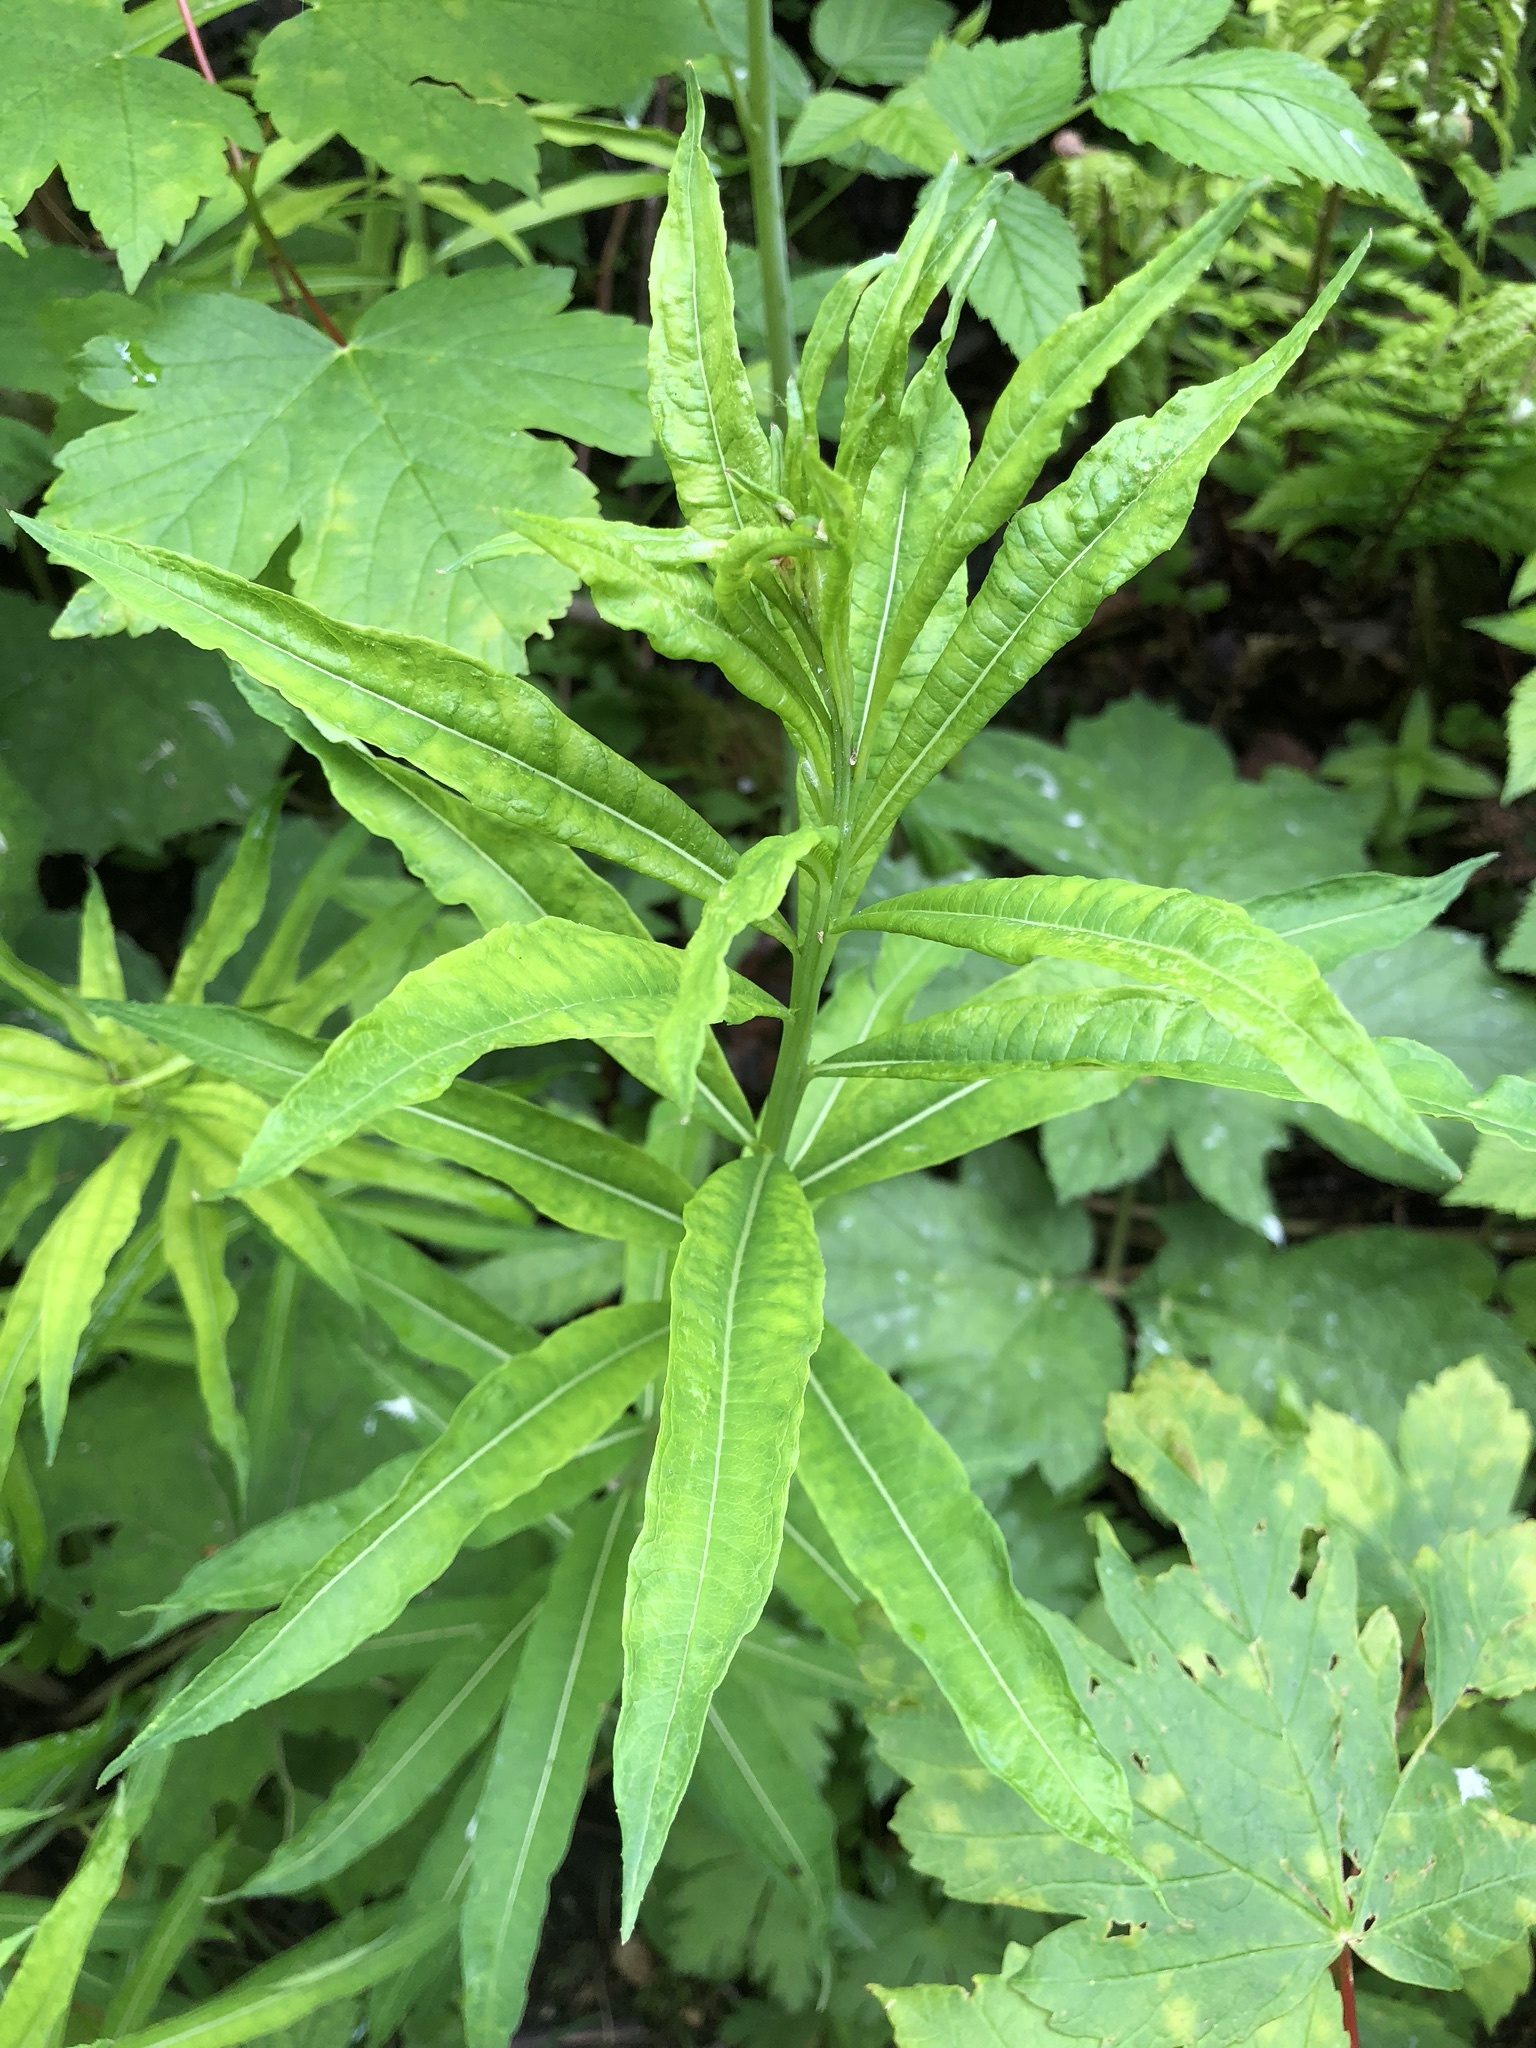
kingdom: Plantae
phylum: Tracheophyta
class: Magnoliopsida
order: Myrtales
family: Onagraceae
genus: Chamaenerion
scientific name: Chamaenerion angustifolium
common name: Fireweed
